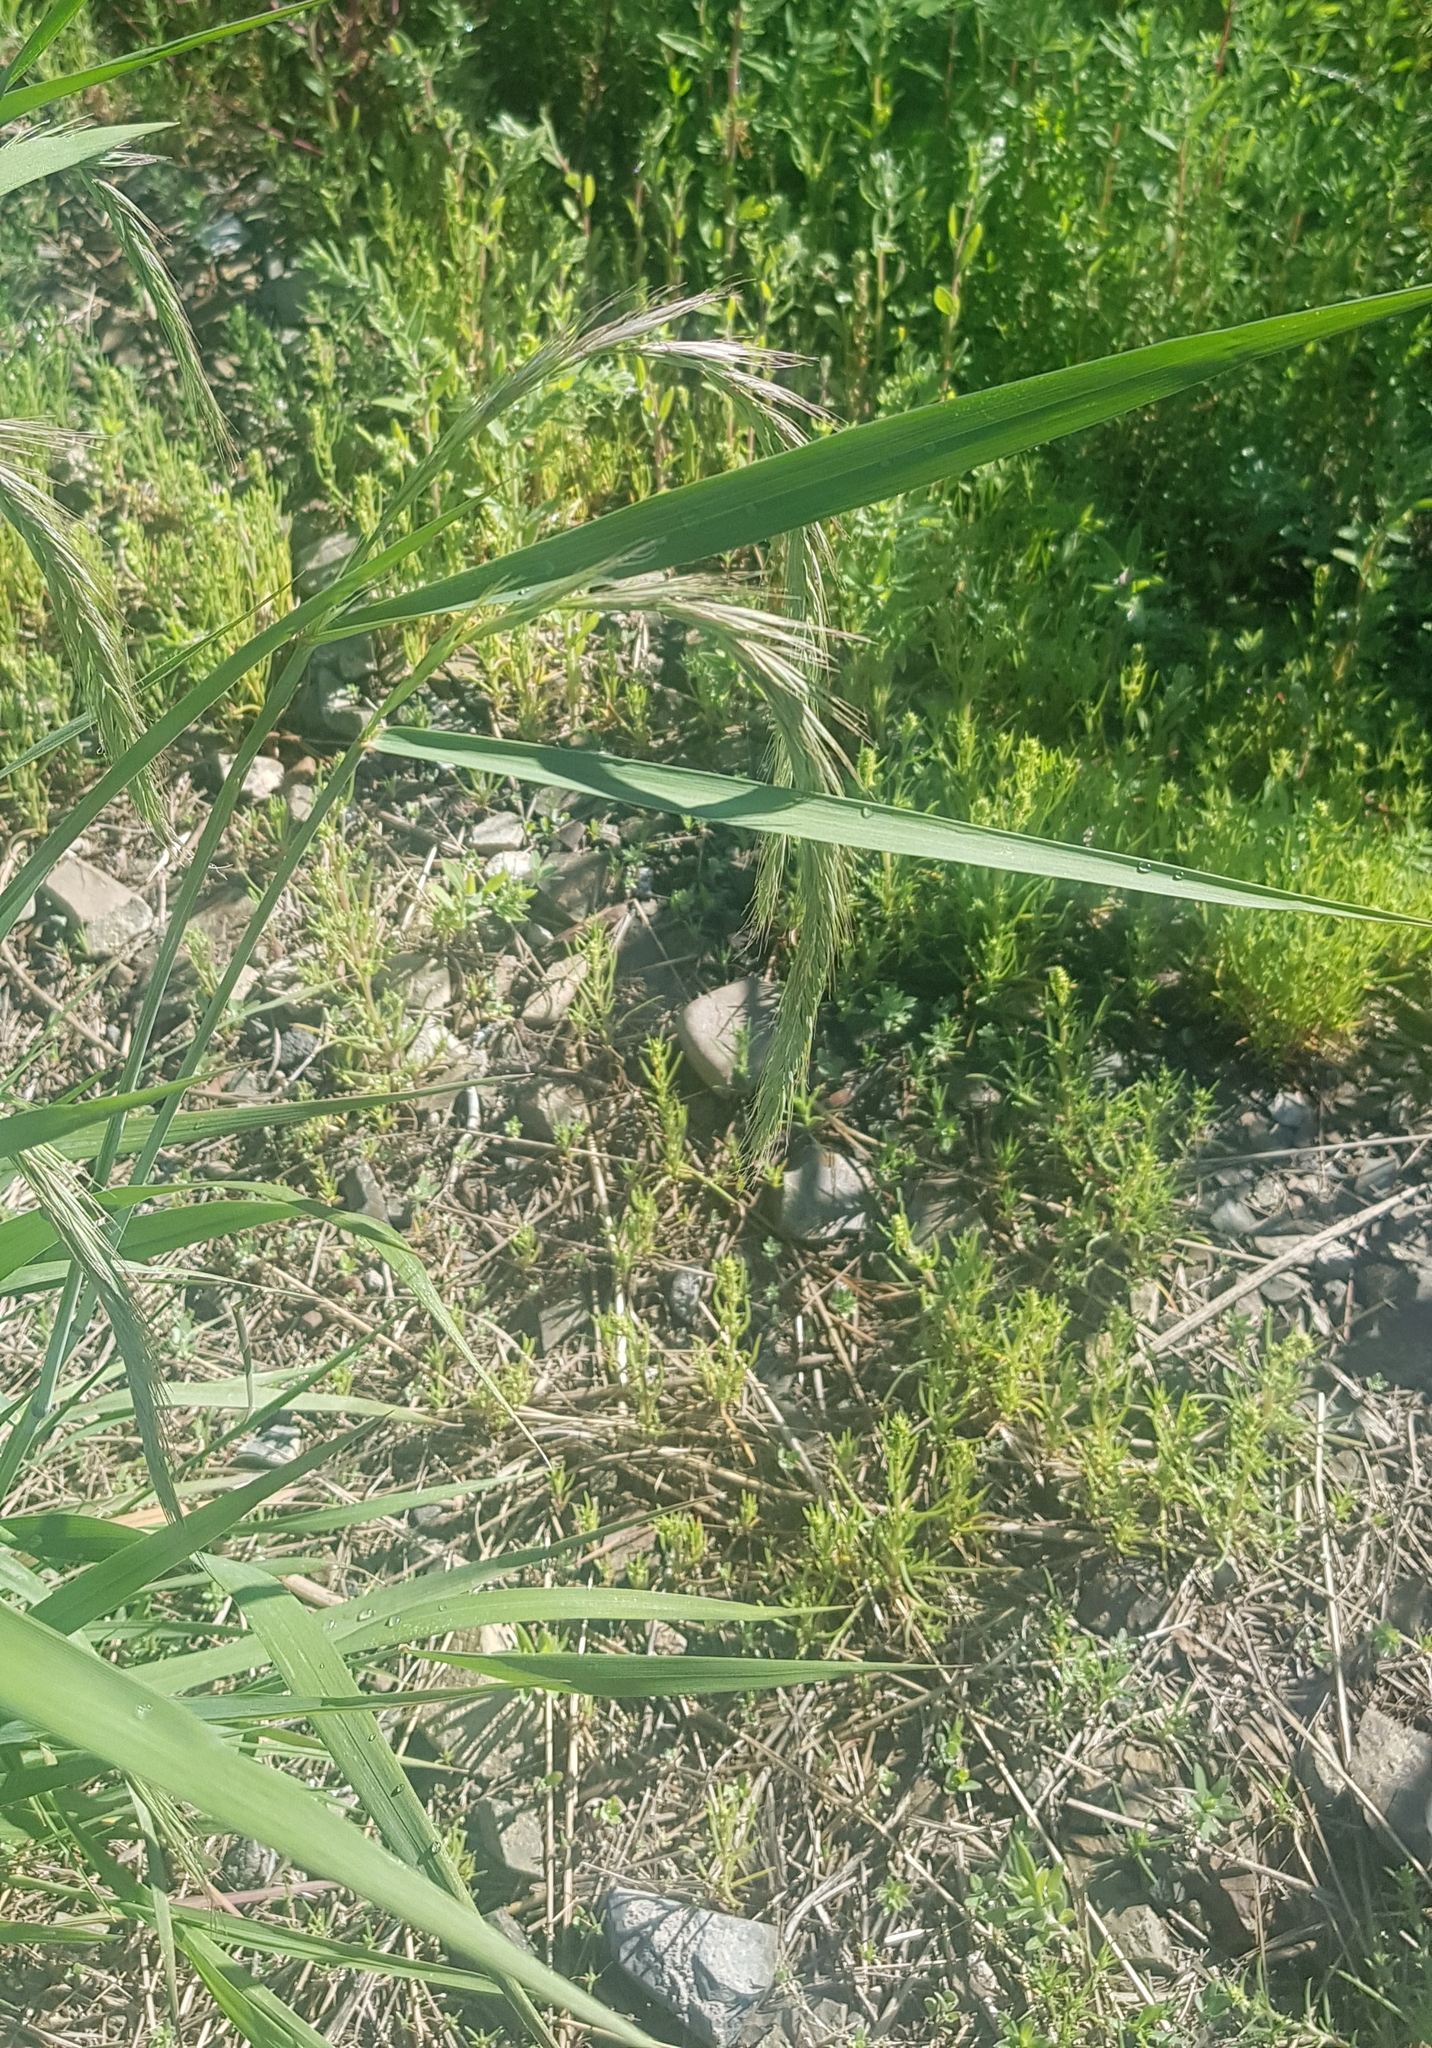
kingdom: Plantae
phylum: Tracheophyta
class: Liliopsida
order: Poales
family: Poaceae
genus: Elymus
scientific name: Elymus sibiricus
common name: Siberian wildrye
